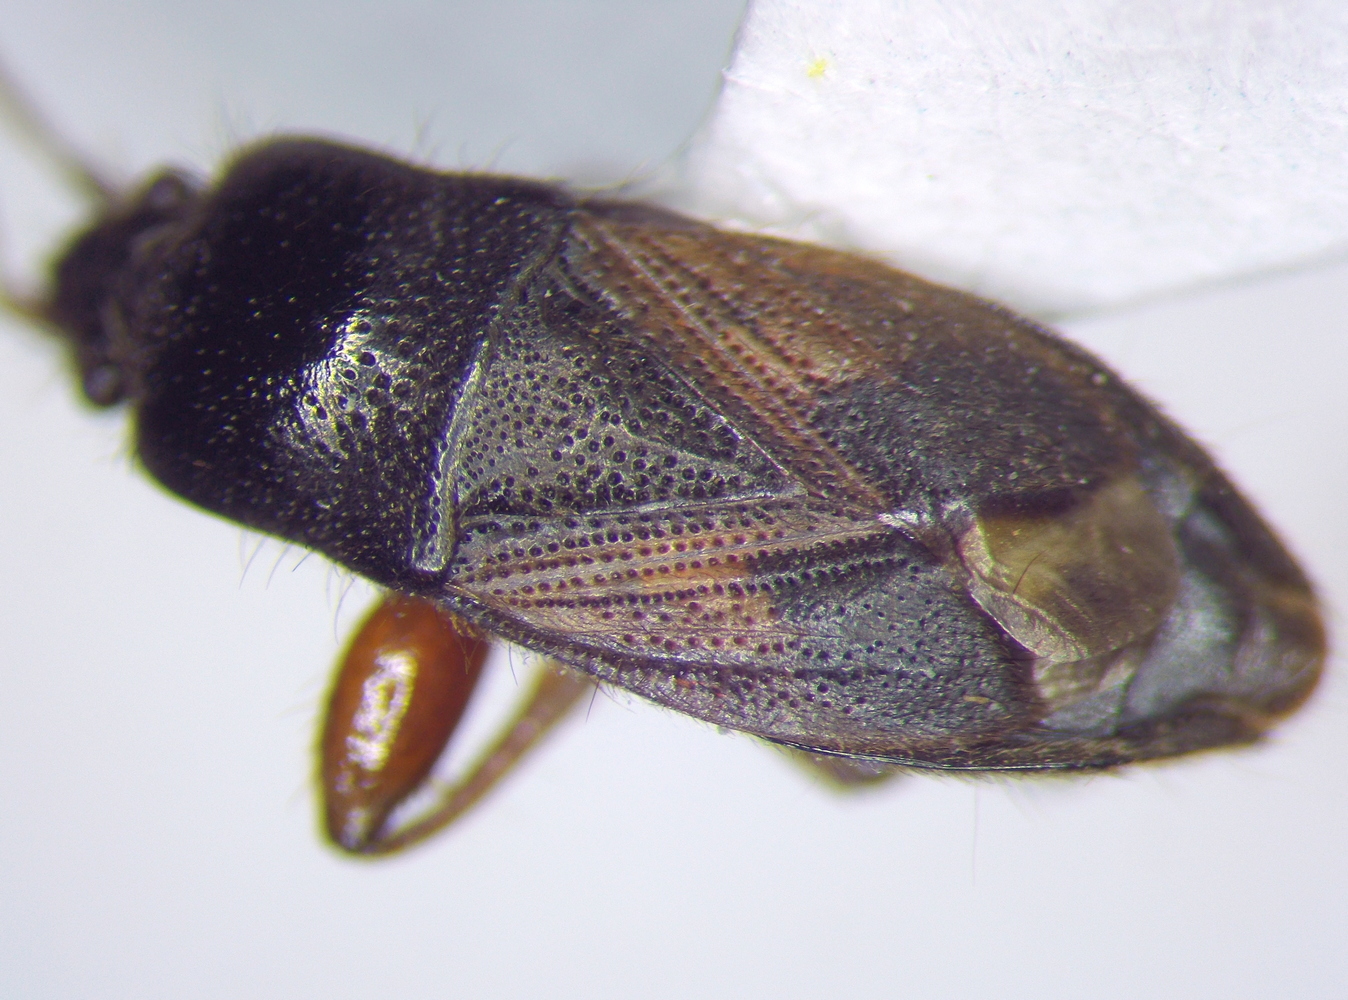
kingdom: Animalia
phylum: Arthropoda
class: Insecta
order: Hemiptera
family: Rhyparochromidae
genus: Megalonotus
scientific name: Megalonotus lederi
